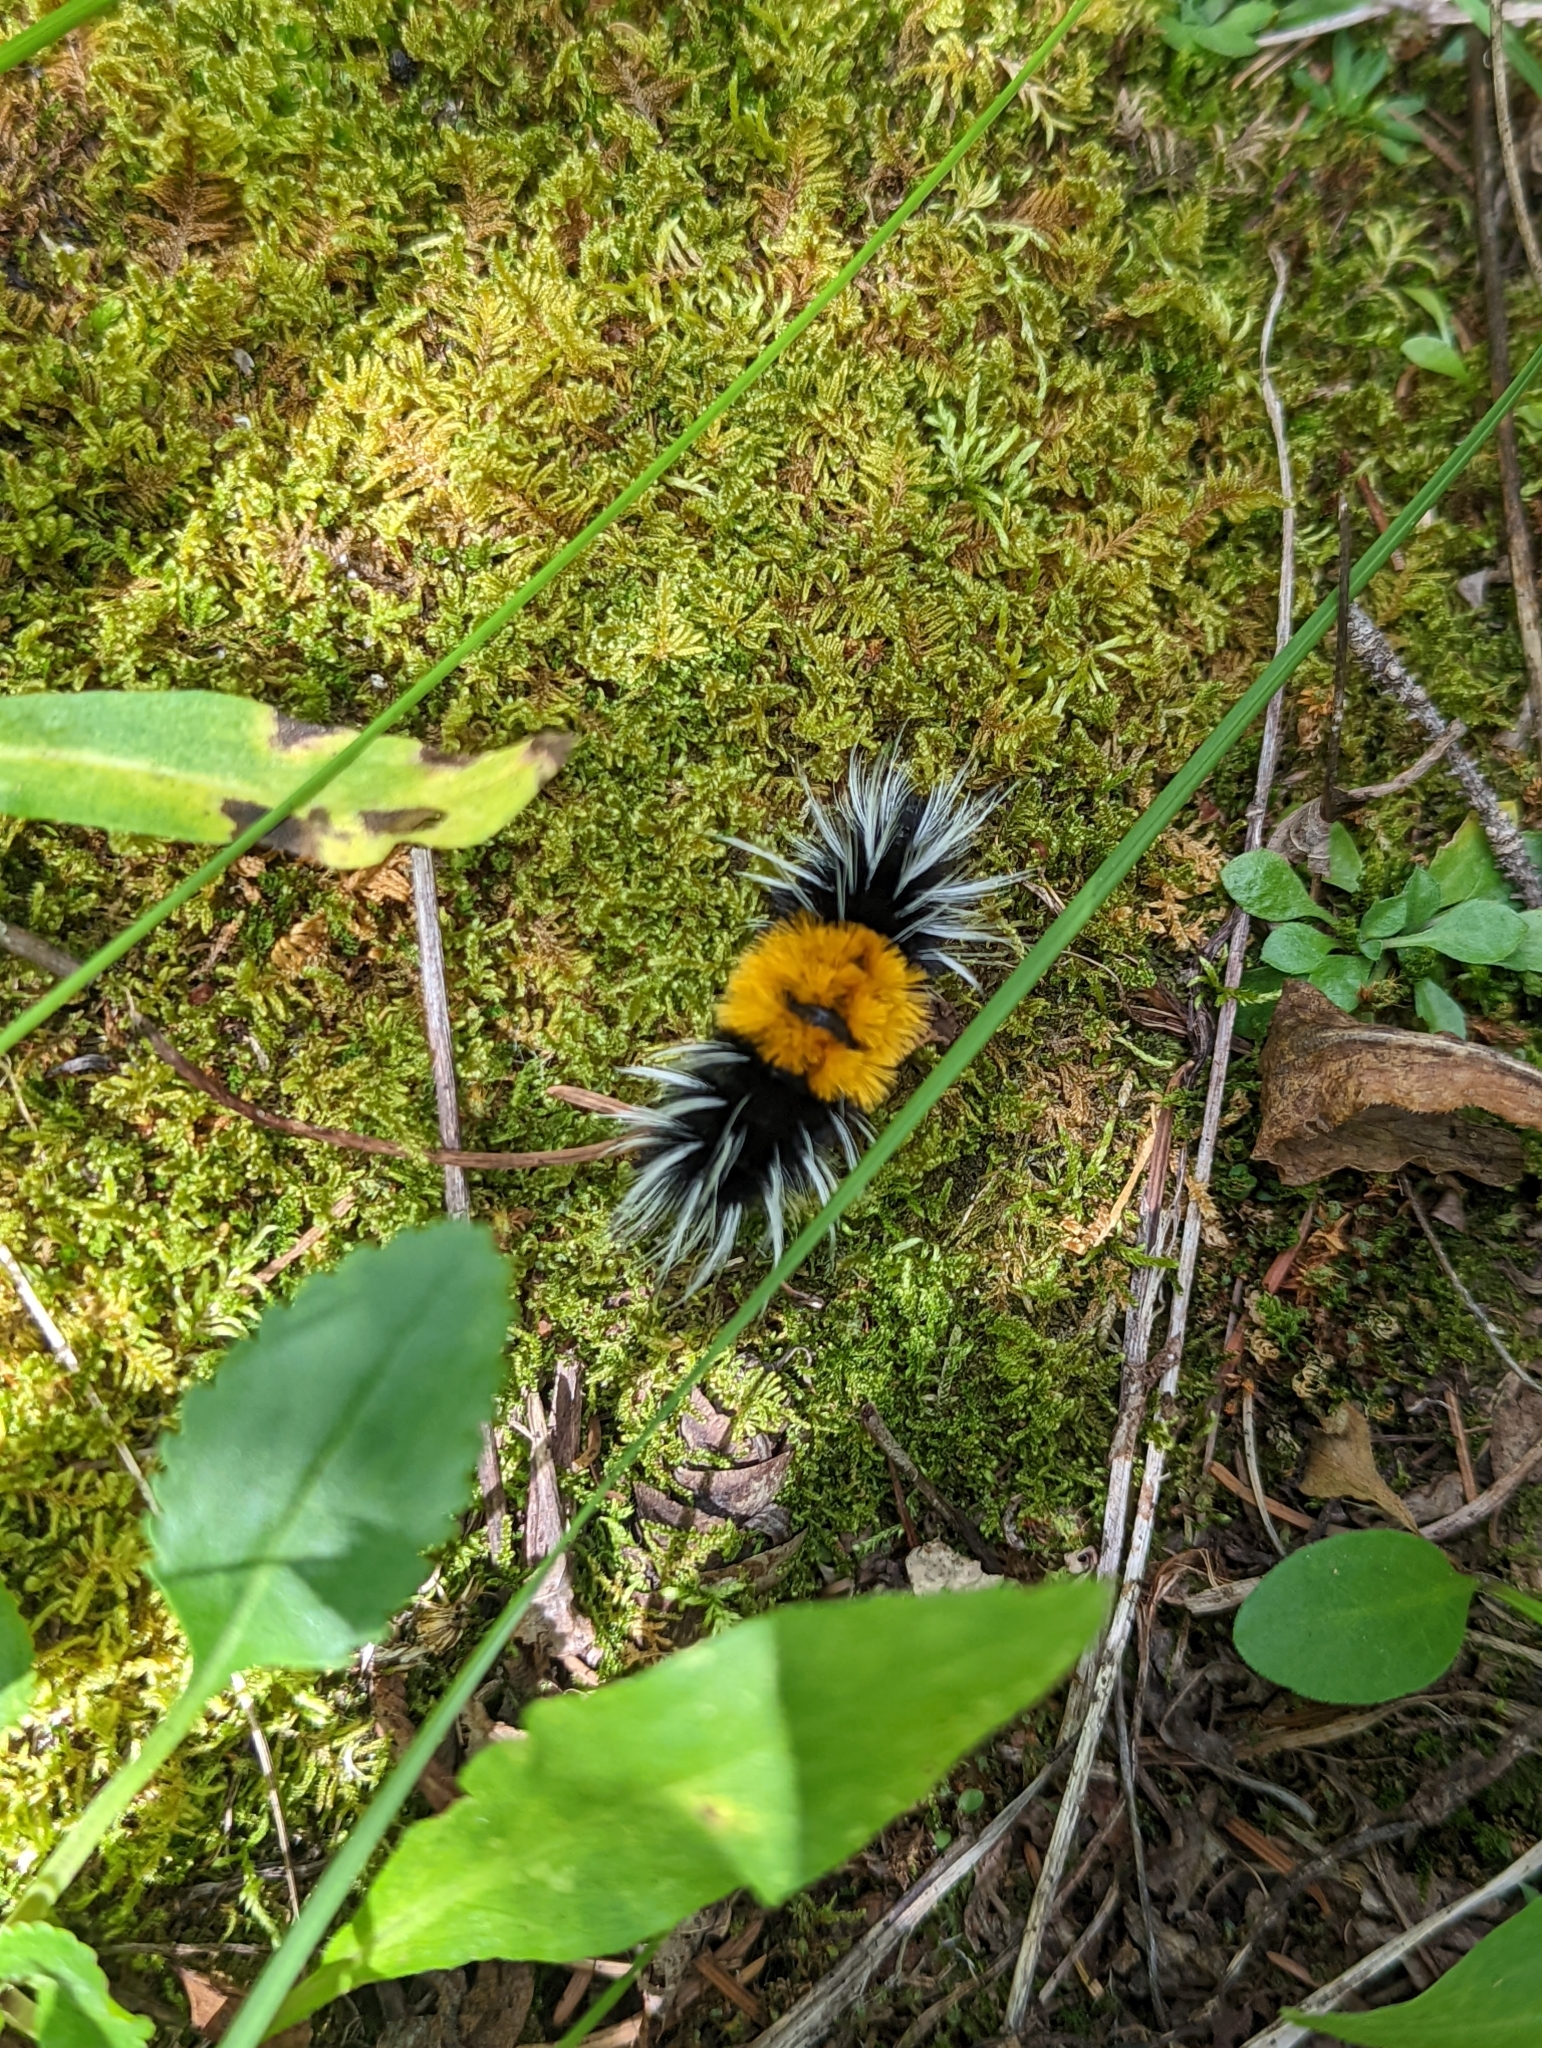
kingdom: Animalia
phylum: Arthropoda
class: Insecta
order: Lepidoptera
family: Erebidae
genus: Lophocampa
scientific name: Lophocampa maculata
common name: Spotted tussock moth
